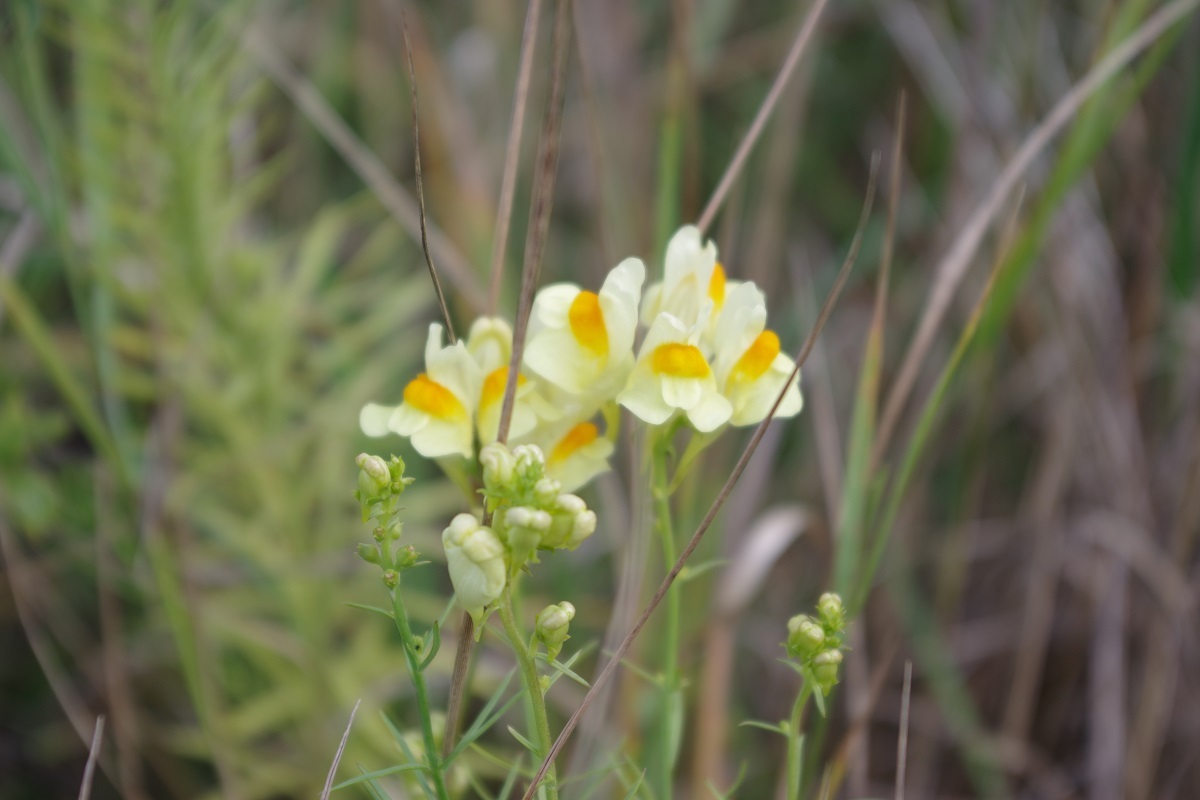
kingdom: Plantae
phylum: Tracheophyta
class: Magnoliopsida
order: Lamiales
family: Plantaginaceae
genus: Linaria
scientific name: Linaria vulgaris
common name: Butter and eggs
